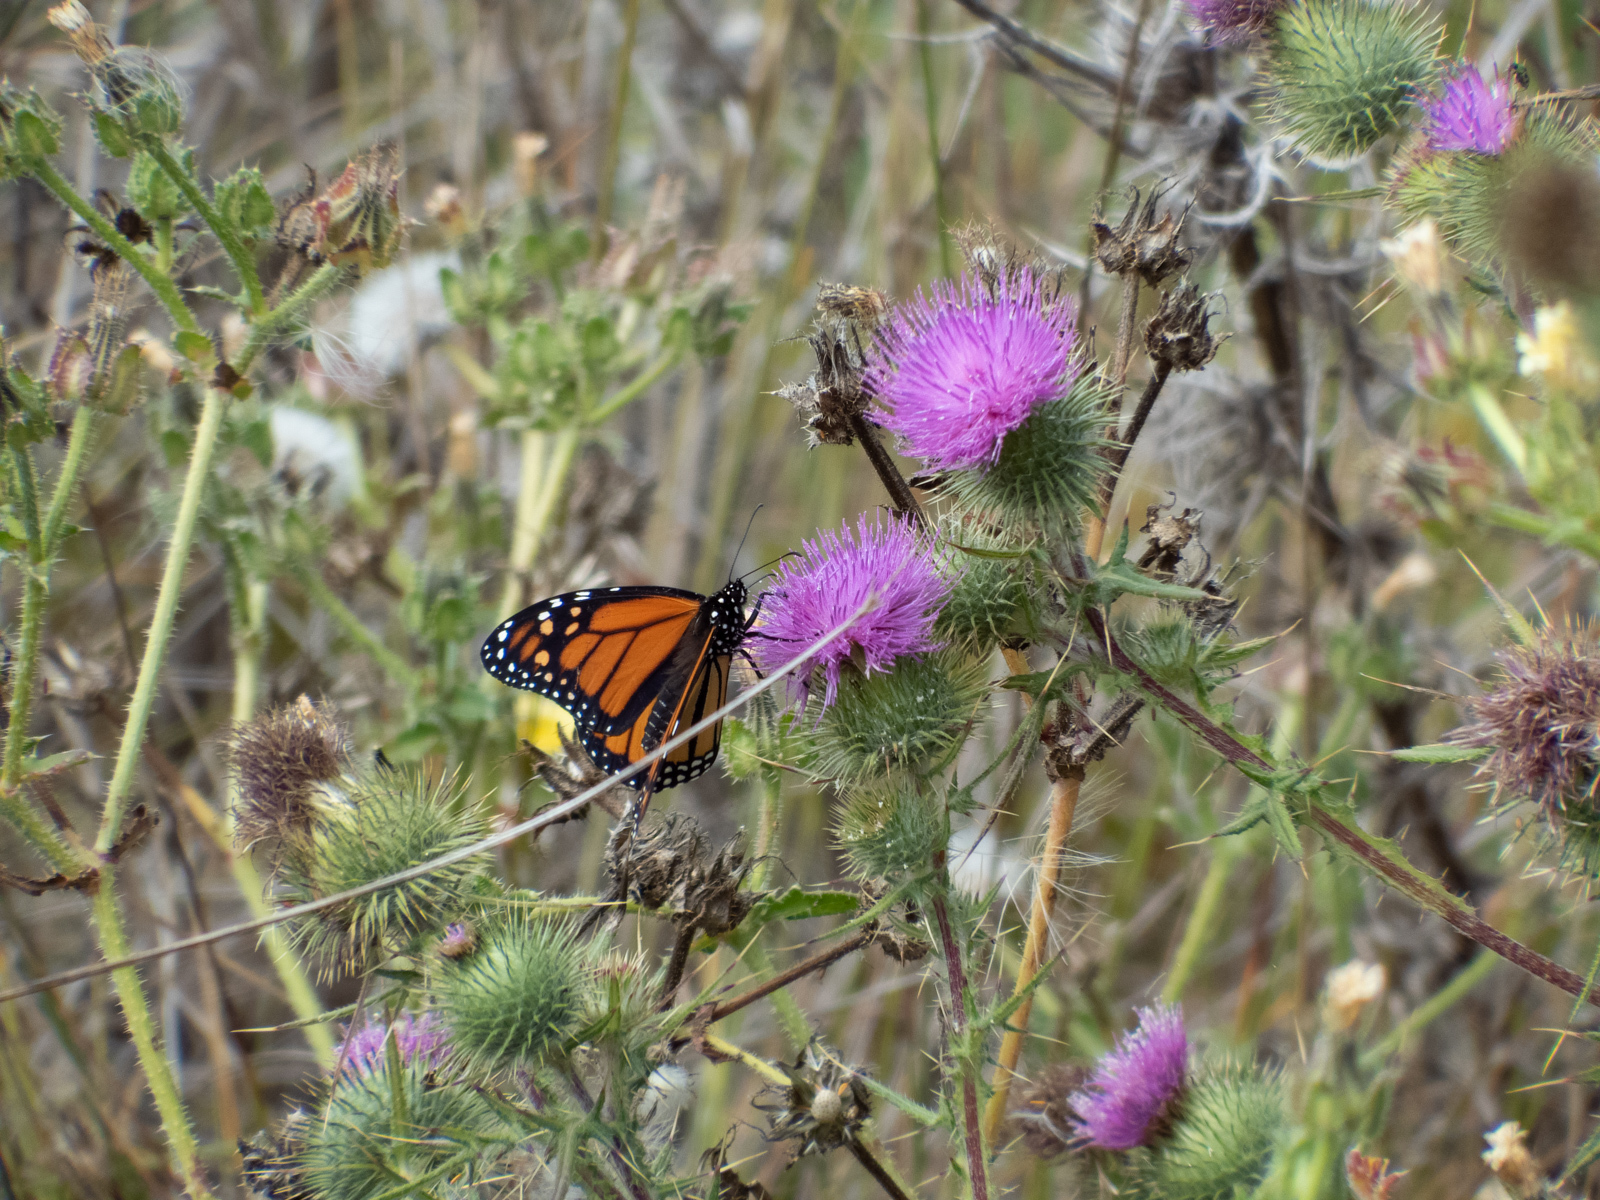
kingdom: Animalia
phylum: Arthropoda
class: Insecta
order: Lepidoptera
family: Nymphalidae
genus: Danaus
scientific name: Danaus plexippus
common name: Monarch
